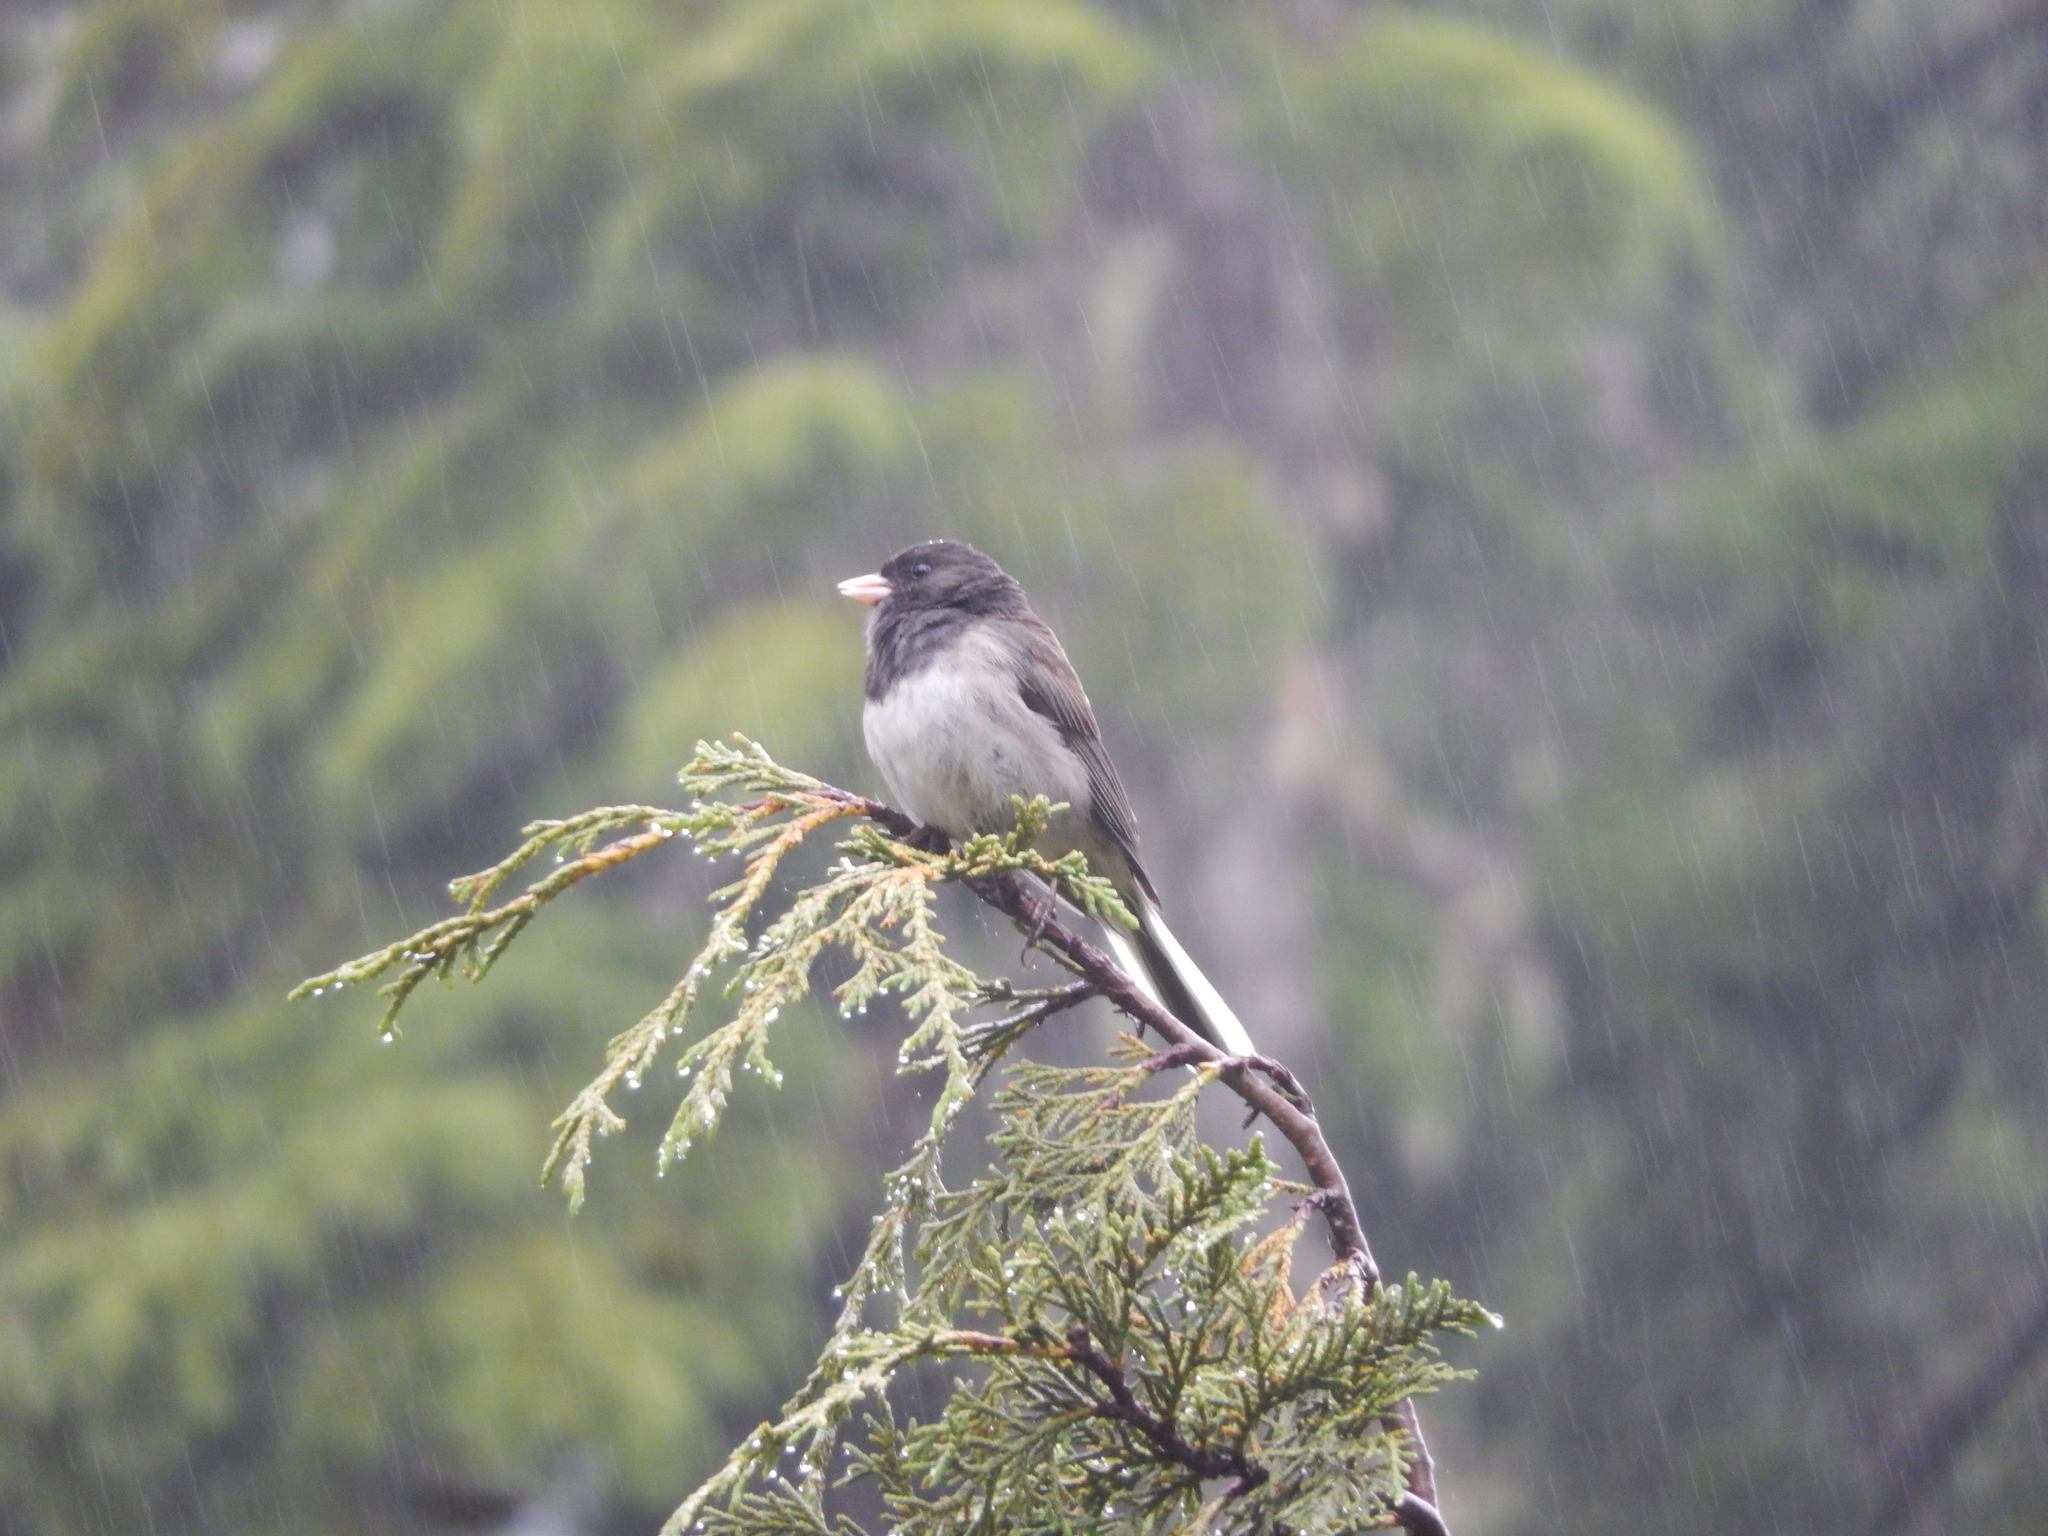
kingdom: Animalia
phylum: Chordata
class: Aves
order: Passeriformes
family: Passerellidae
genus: Junco
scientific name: Junco hyemalis
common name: Dark-eyed junco
